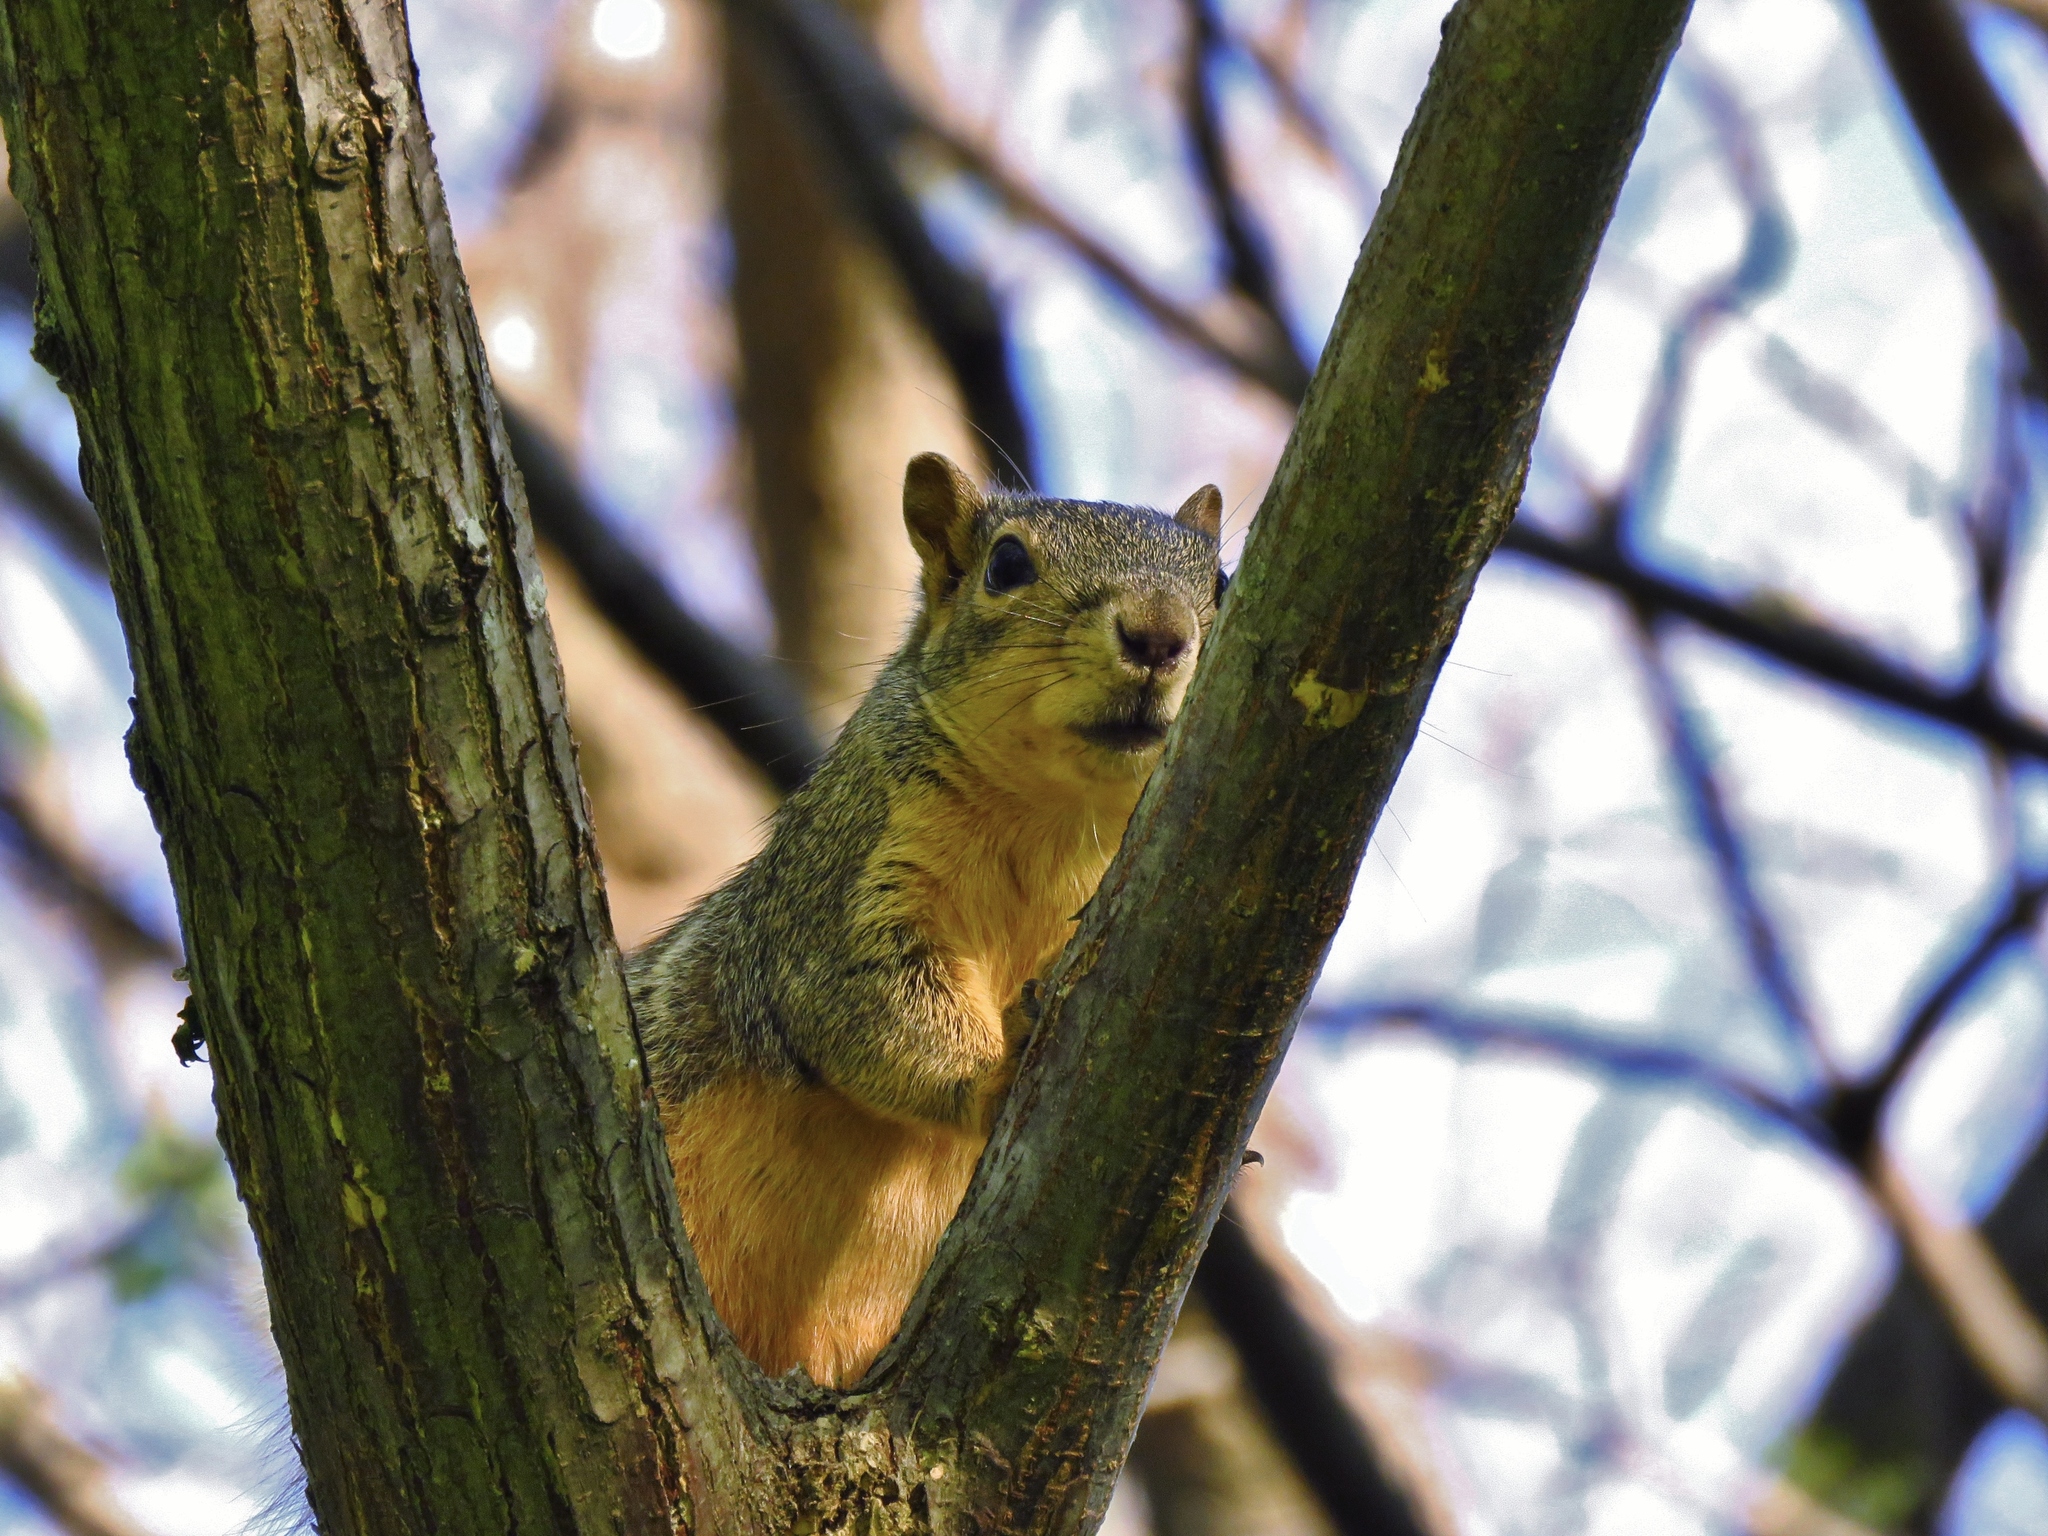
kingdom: Animalia
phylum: Chordata
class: Mammalia
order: Rodentia
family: Sciuridae
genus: Sciurus
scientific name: Sciurus niger
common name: Fox squirrel
